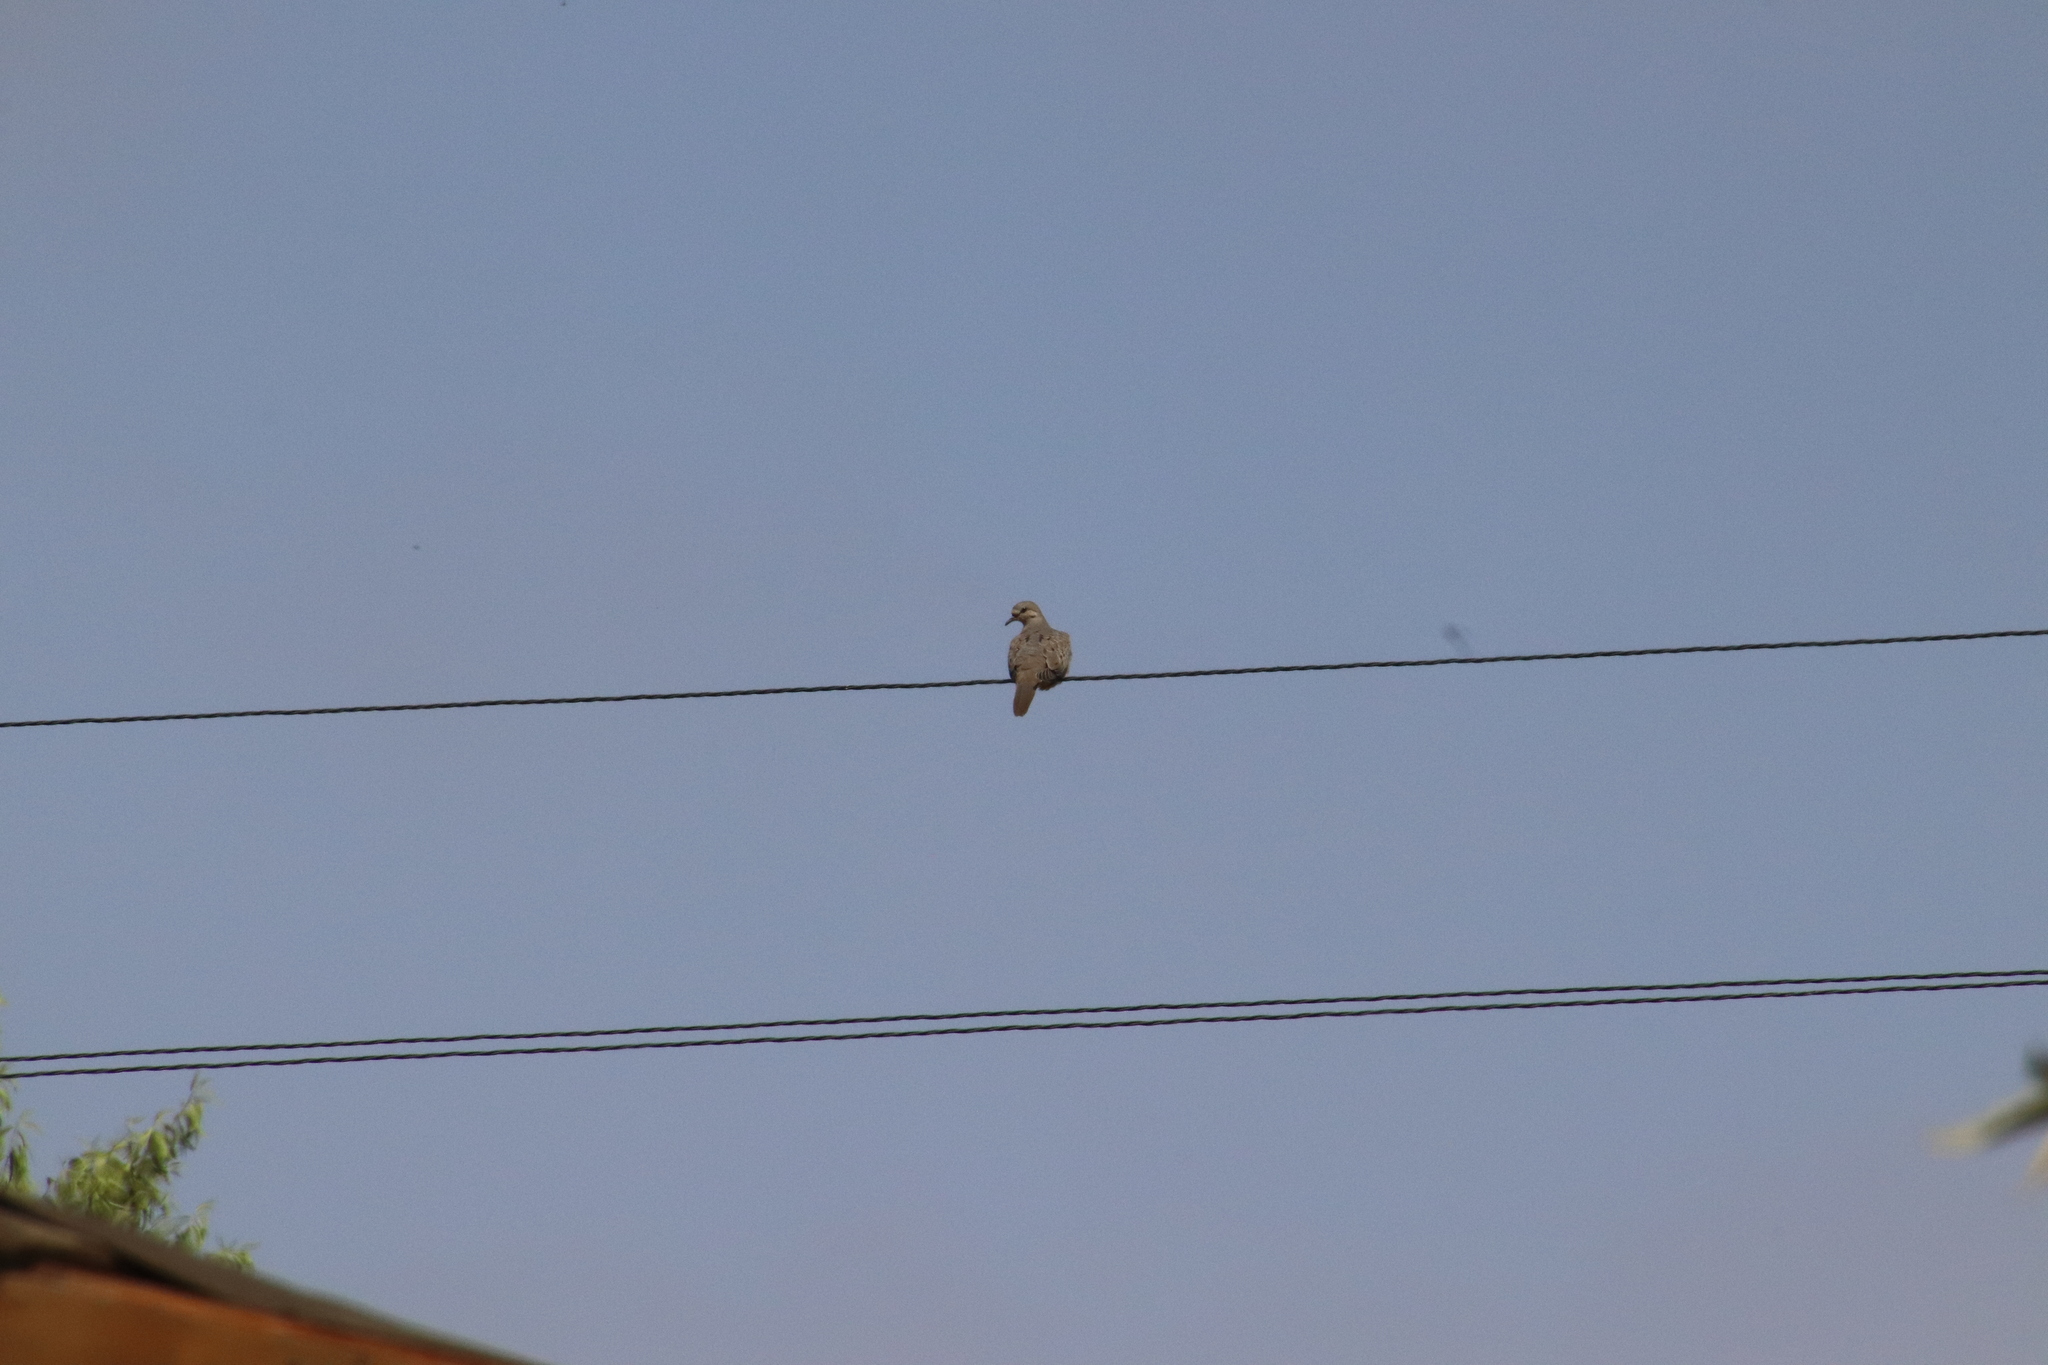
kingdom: Animalia
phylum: Chordata
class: Aves
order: Columbiformes
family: Columbidae
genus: Zenaida
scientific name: Zenaida macroura
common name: Mourning dove
